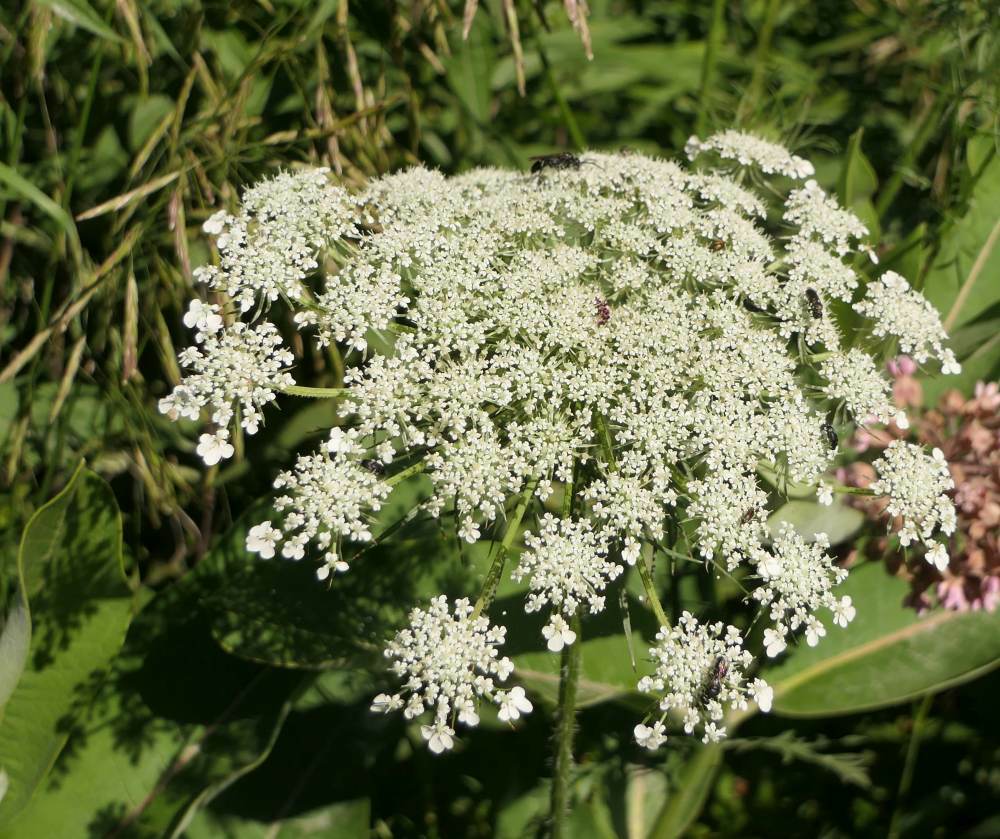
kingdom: Plantae
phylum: Tracheophyta
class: Magnoliopsida
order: Apiales
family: Apiaceae
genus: Daucus
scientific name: Daucus carota
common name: Wild carrot
